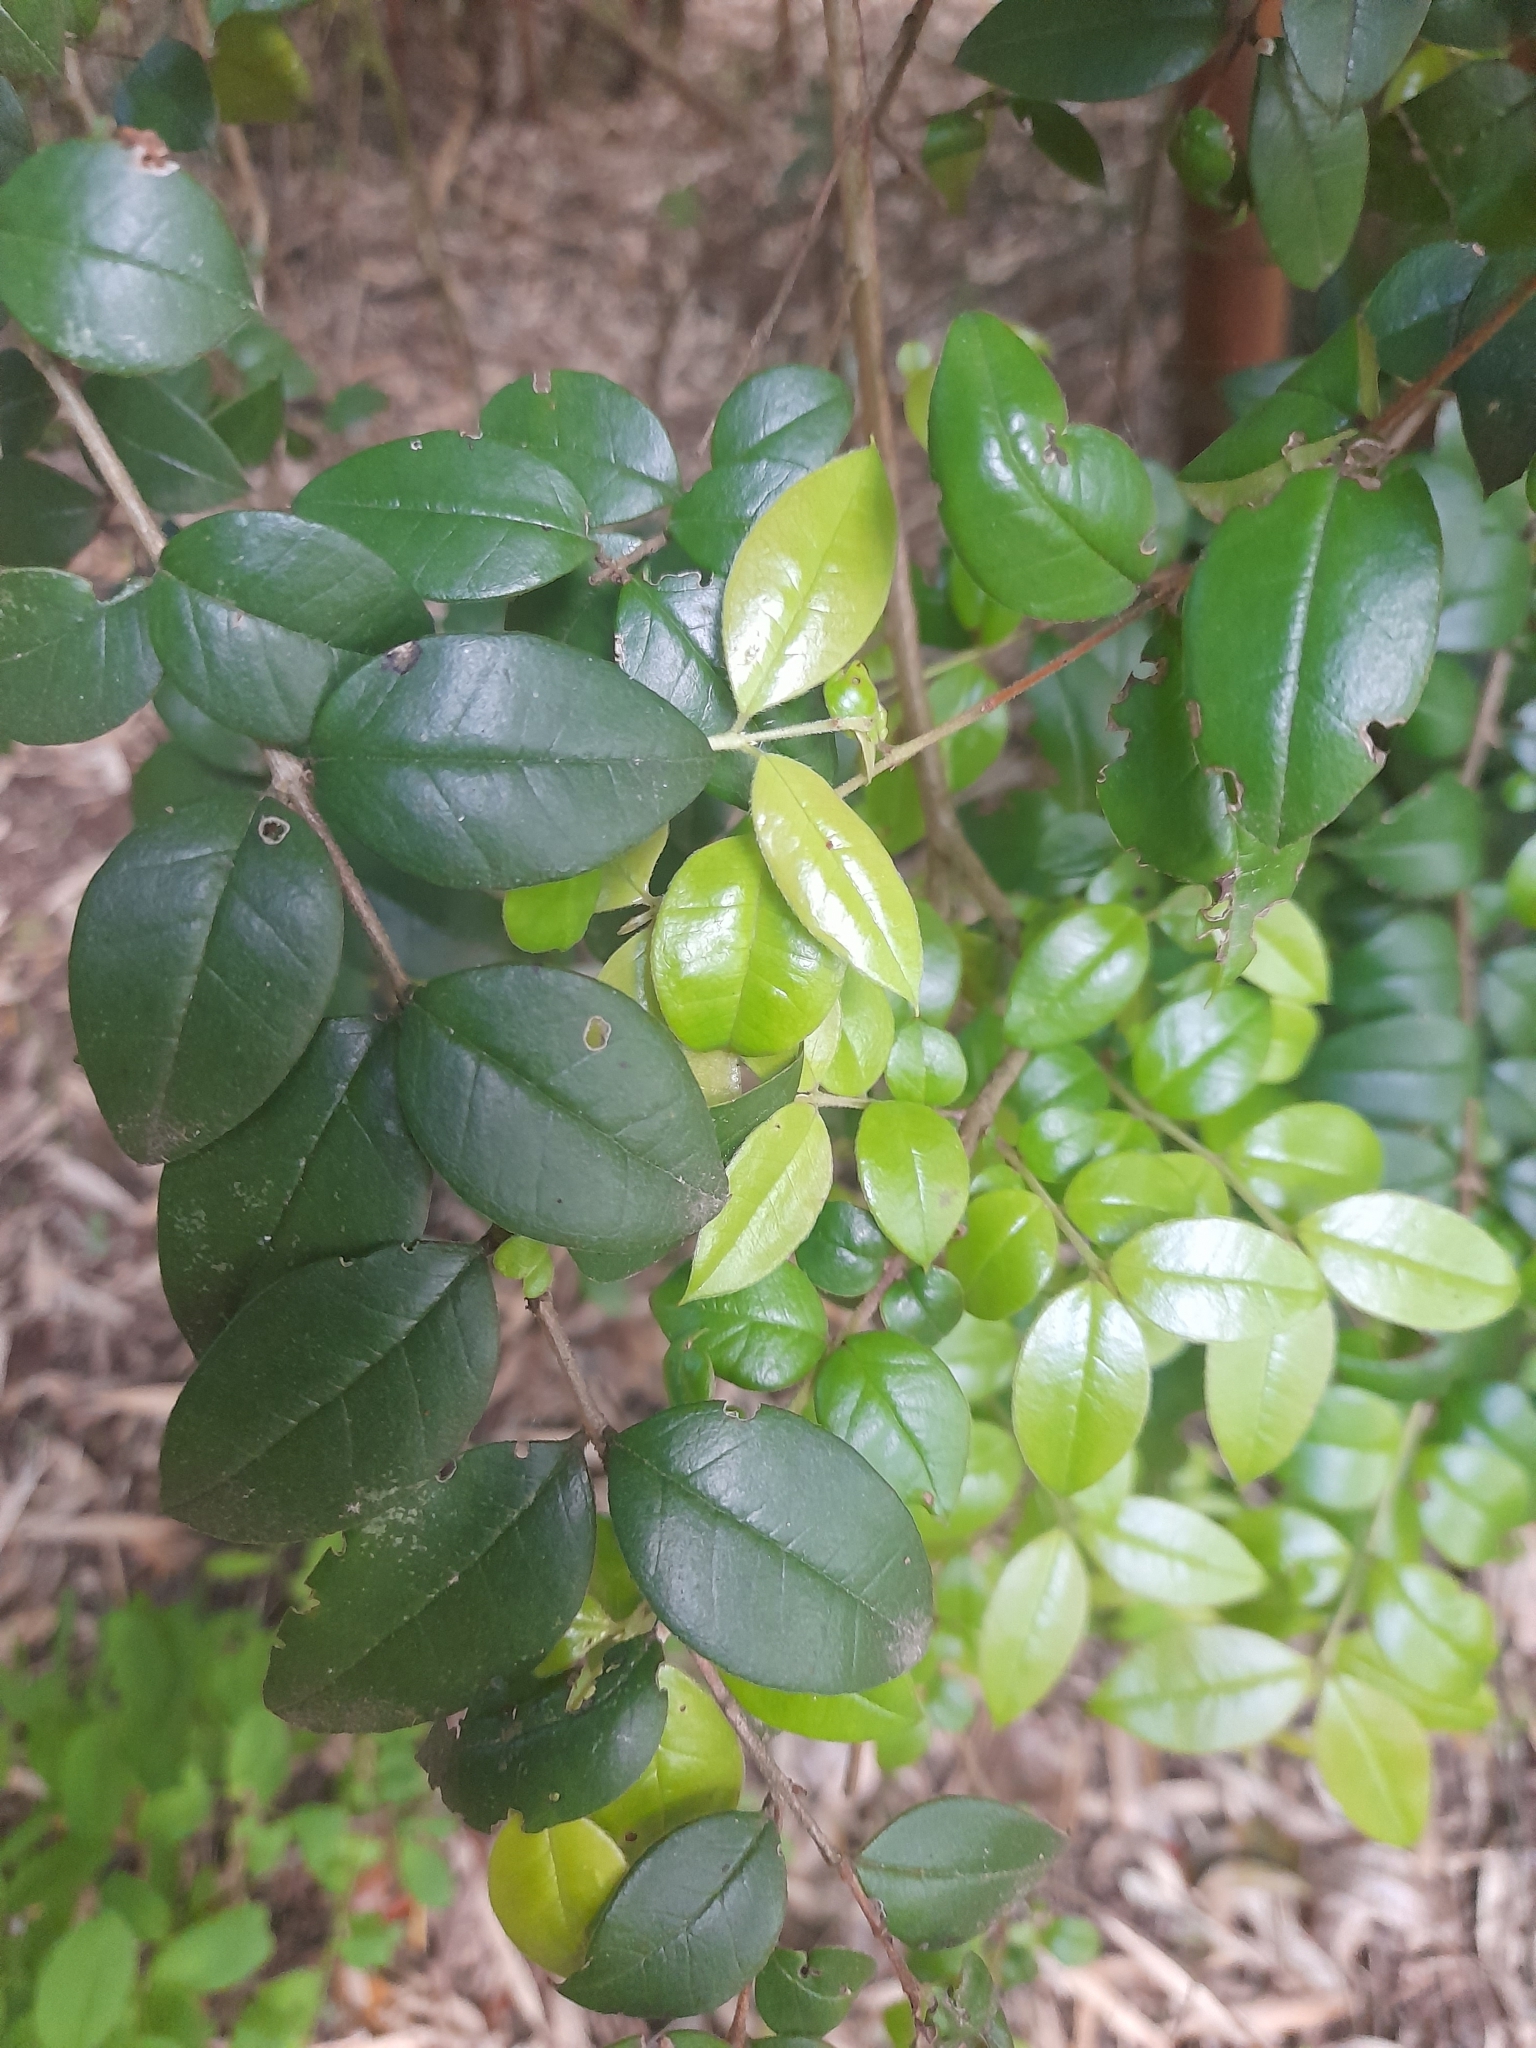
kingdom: Plantae
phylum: Tracheophyta
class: Magnoliopsida
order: Myrtales
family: Myrtaceae
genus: Luma
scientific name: Luma apiculata
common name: Chilean myrtle
